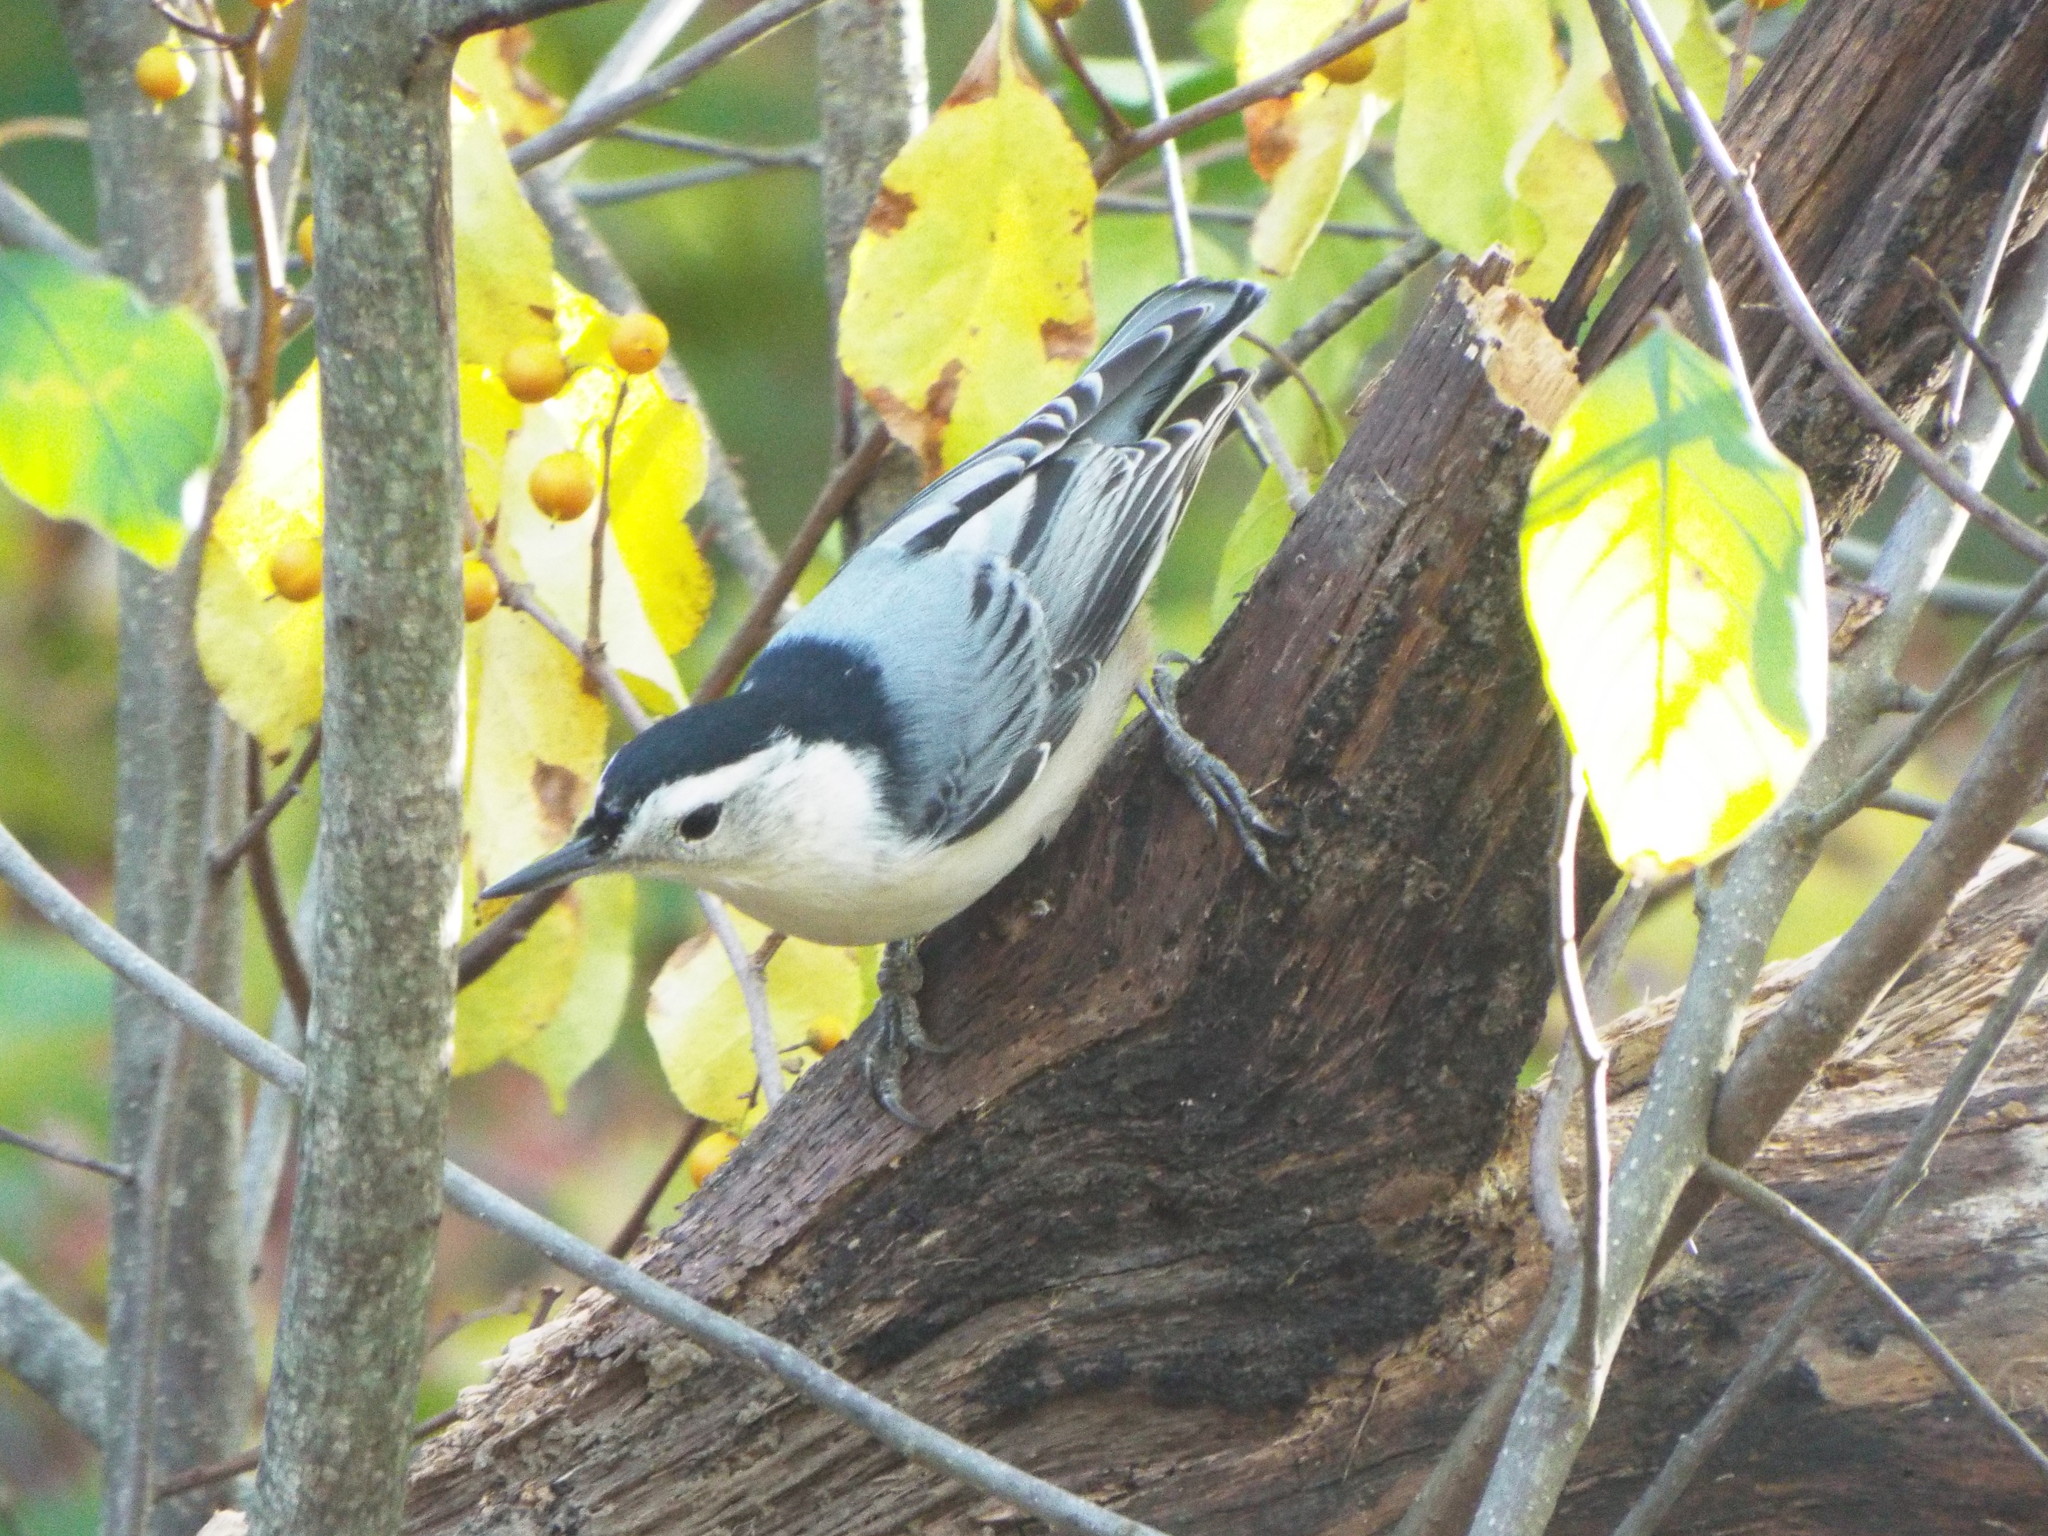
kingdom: Animalia
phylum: Chordata
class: Aves
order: Passeriformes
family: Sittidae
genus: Sitta
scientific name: Sitta carolinensis
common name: White-breasted nuthatch
